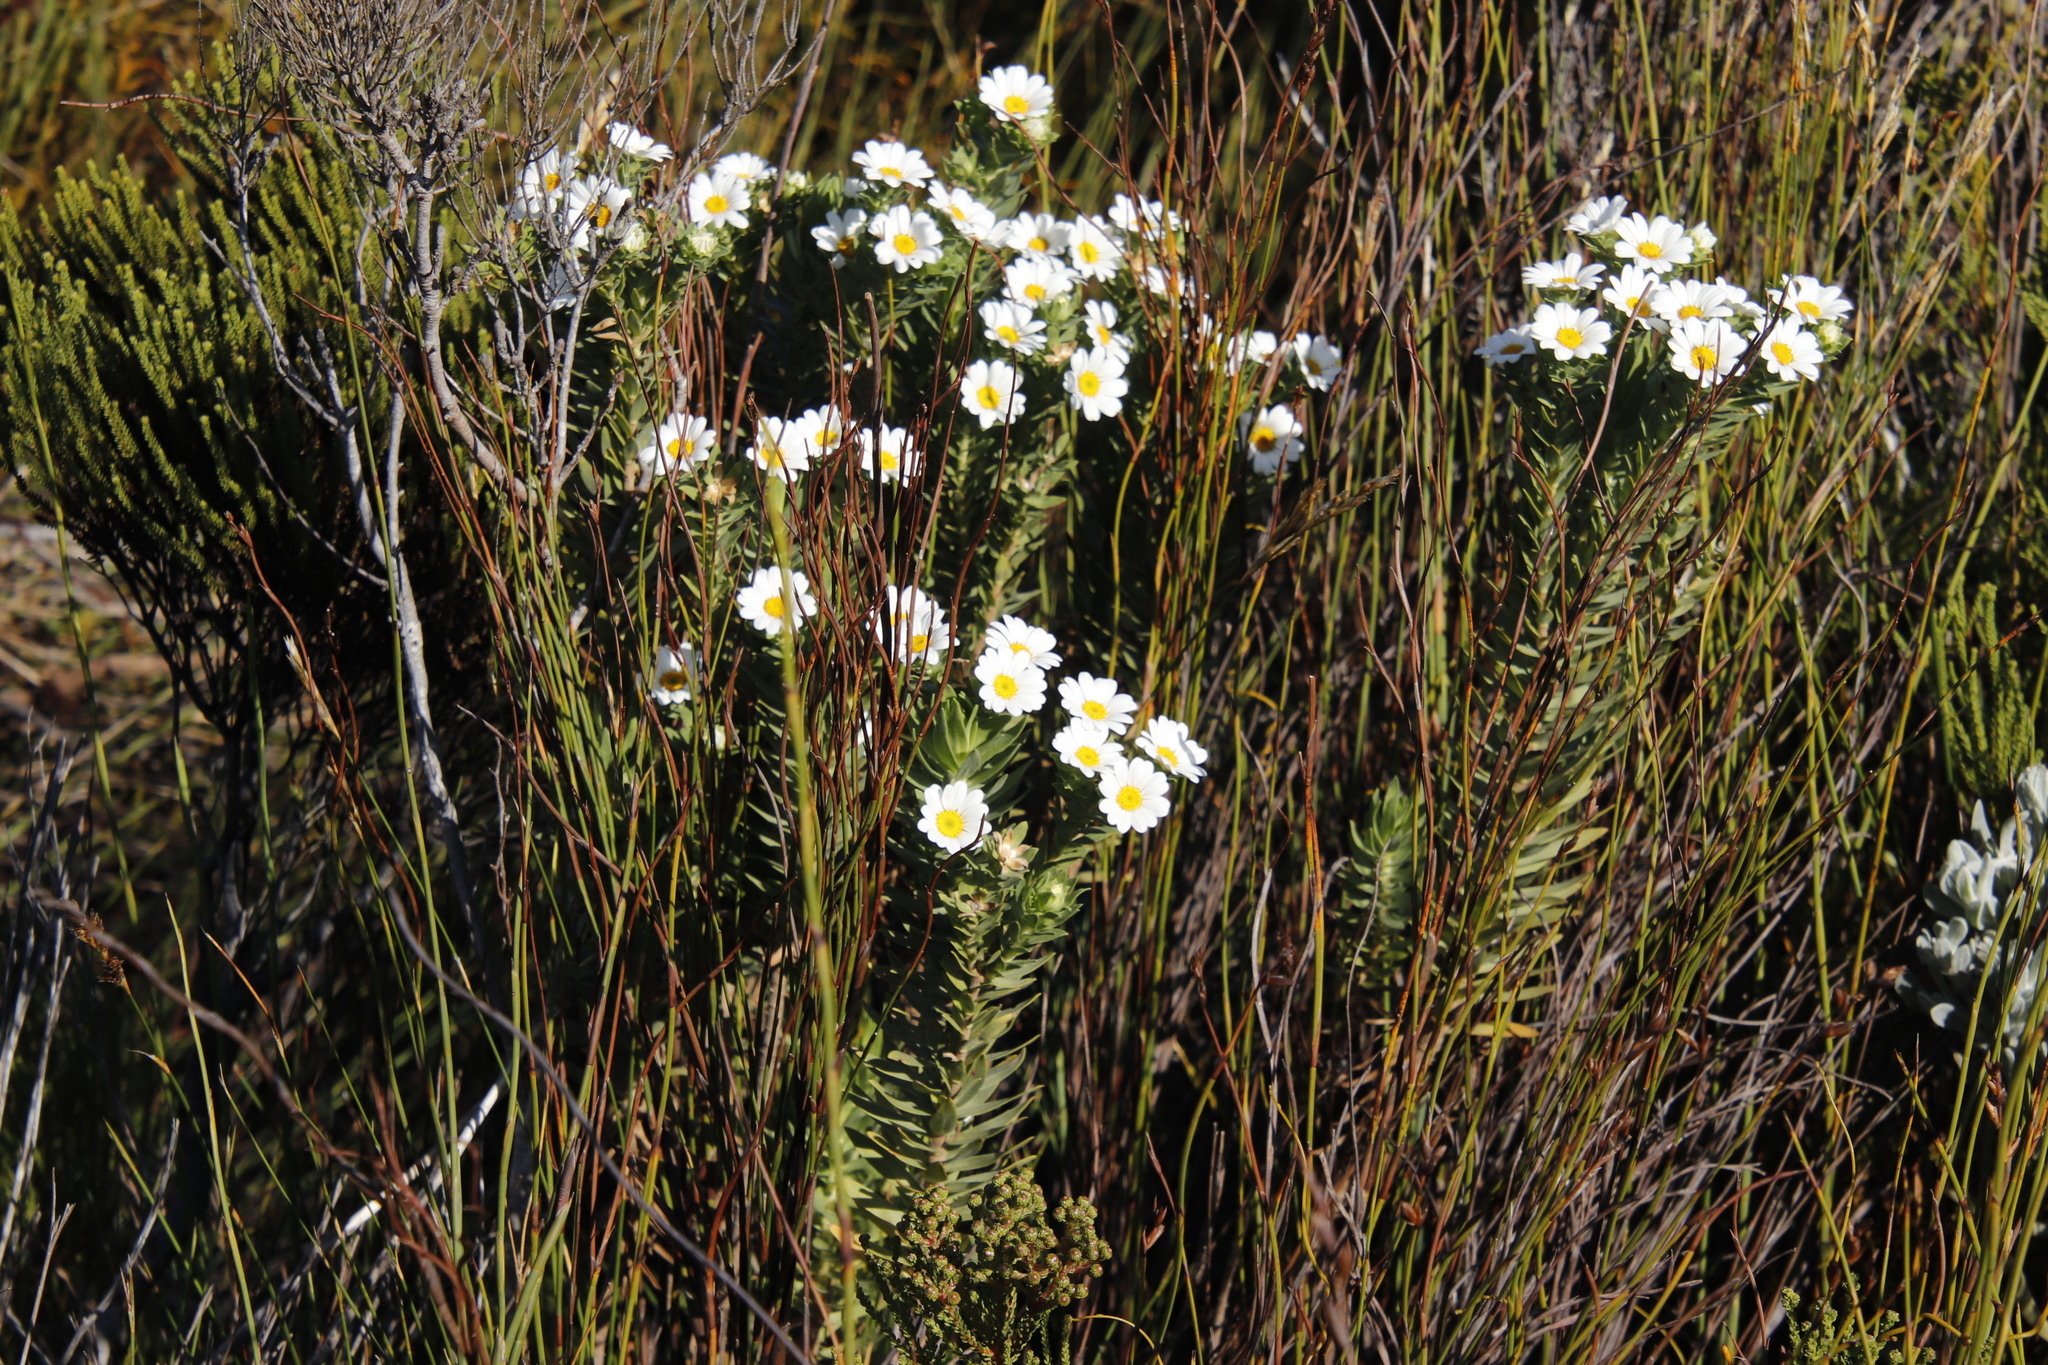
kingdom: Plantae
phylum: Tracheophyta
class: Magnoliopsida
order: Asterales
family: Asteraceae
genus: Osmitopsis
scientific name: Osmitopsis asteriscoides
